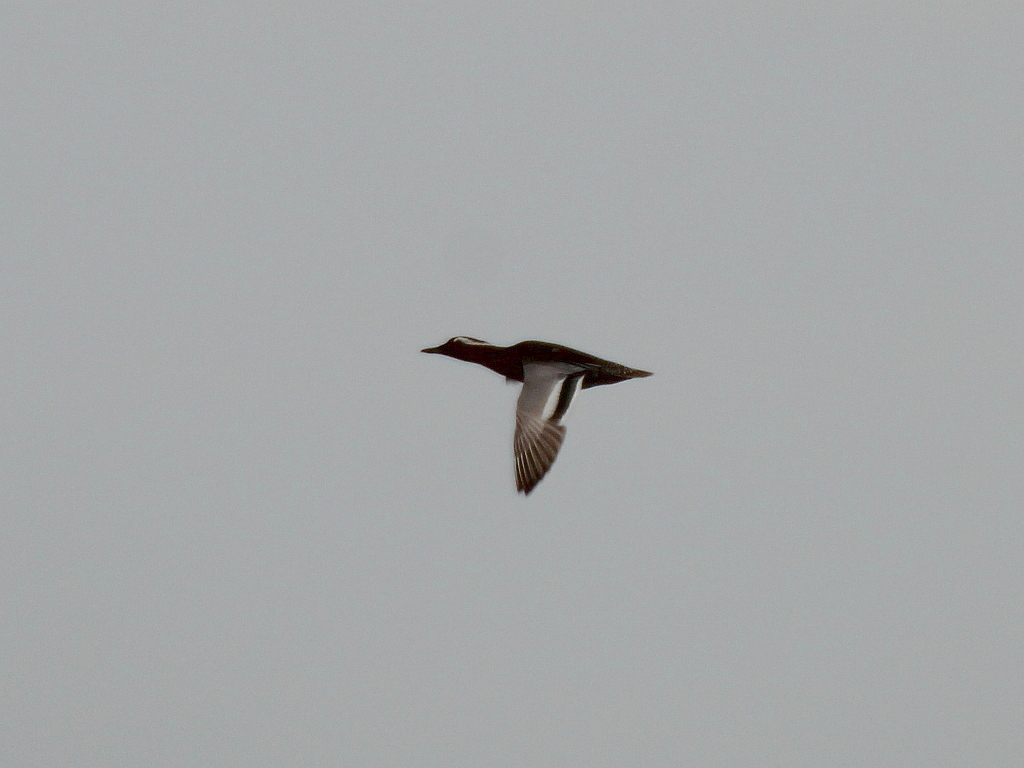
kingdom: Animalia
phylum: Chordata
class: Aves
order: Anseriformes
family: Anatidae
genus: Spatula
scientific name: Spatula querquedula
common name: Garganey
